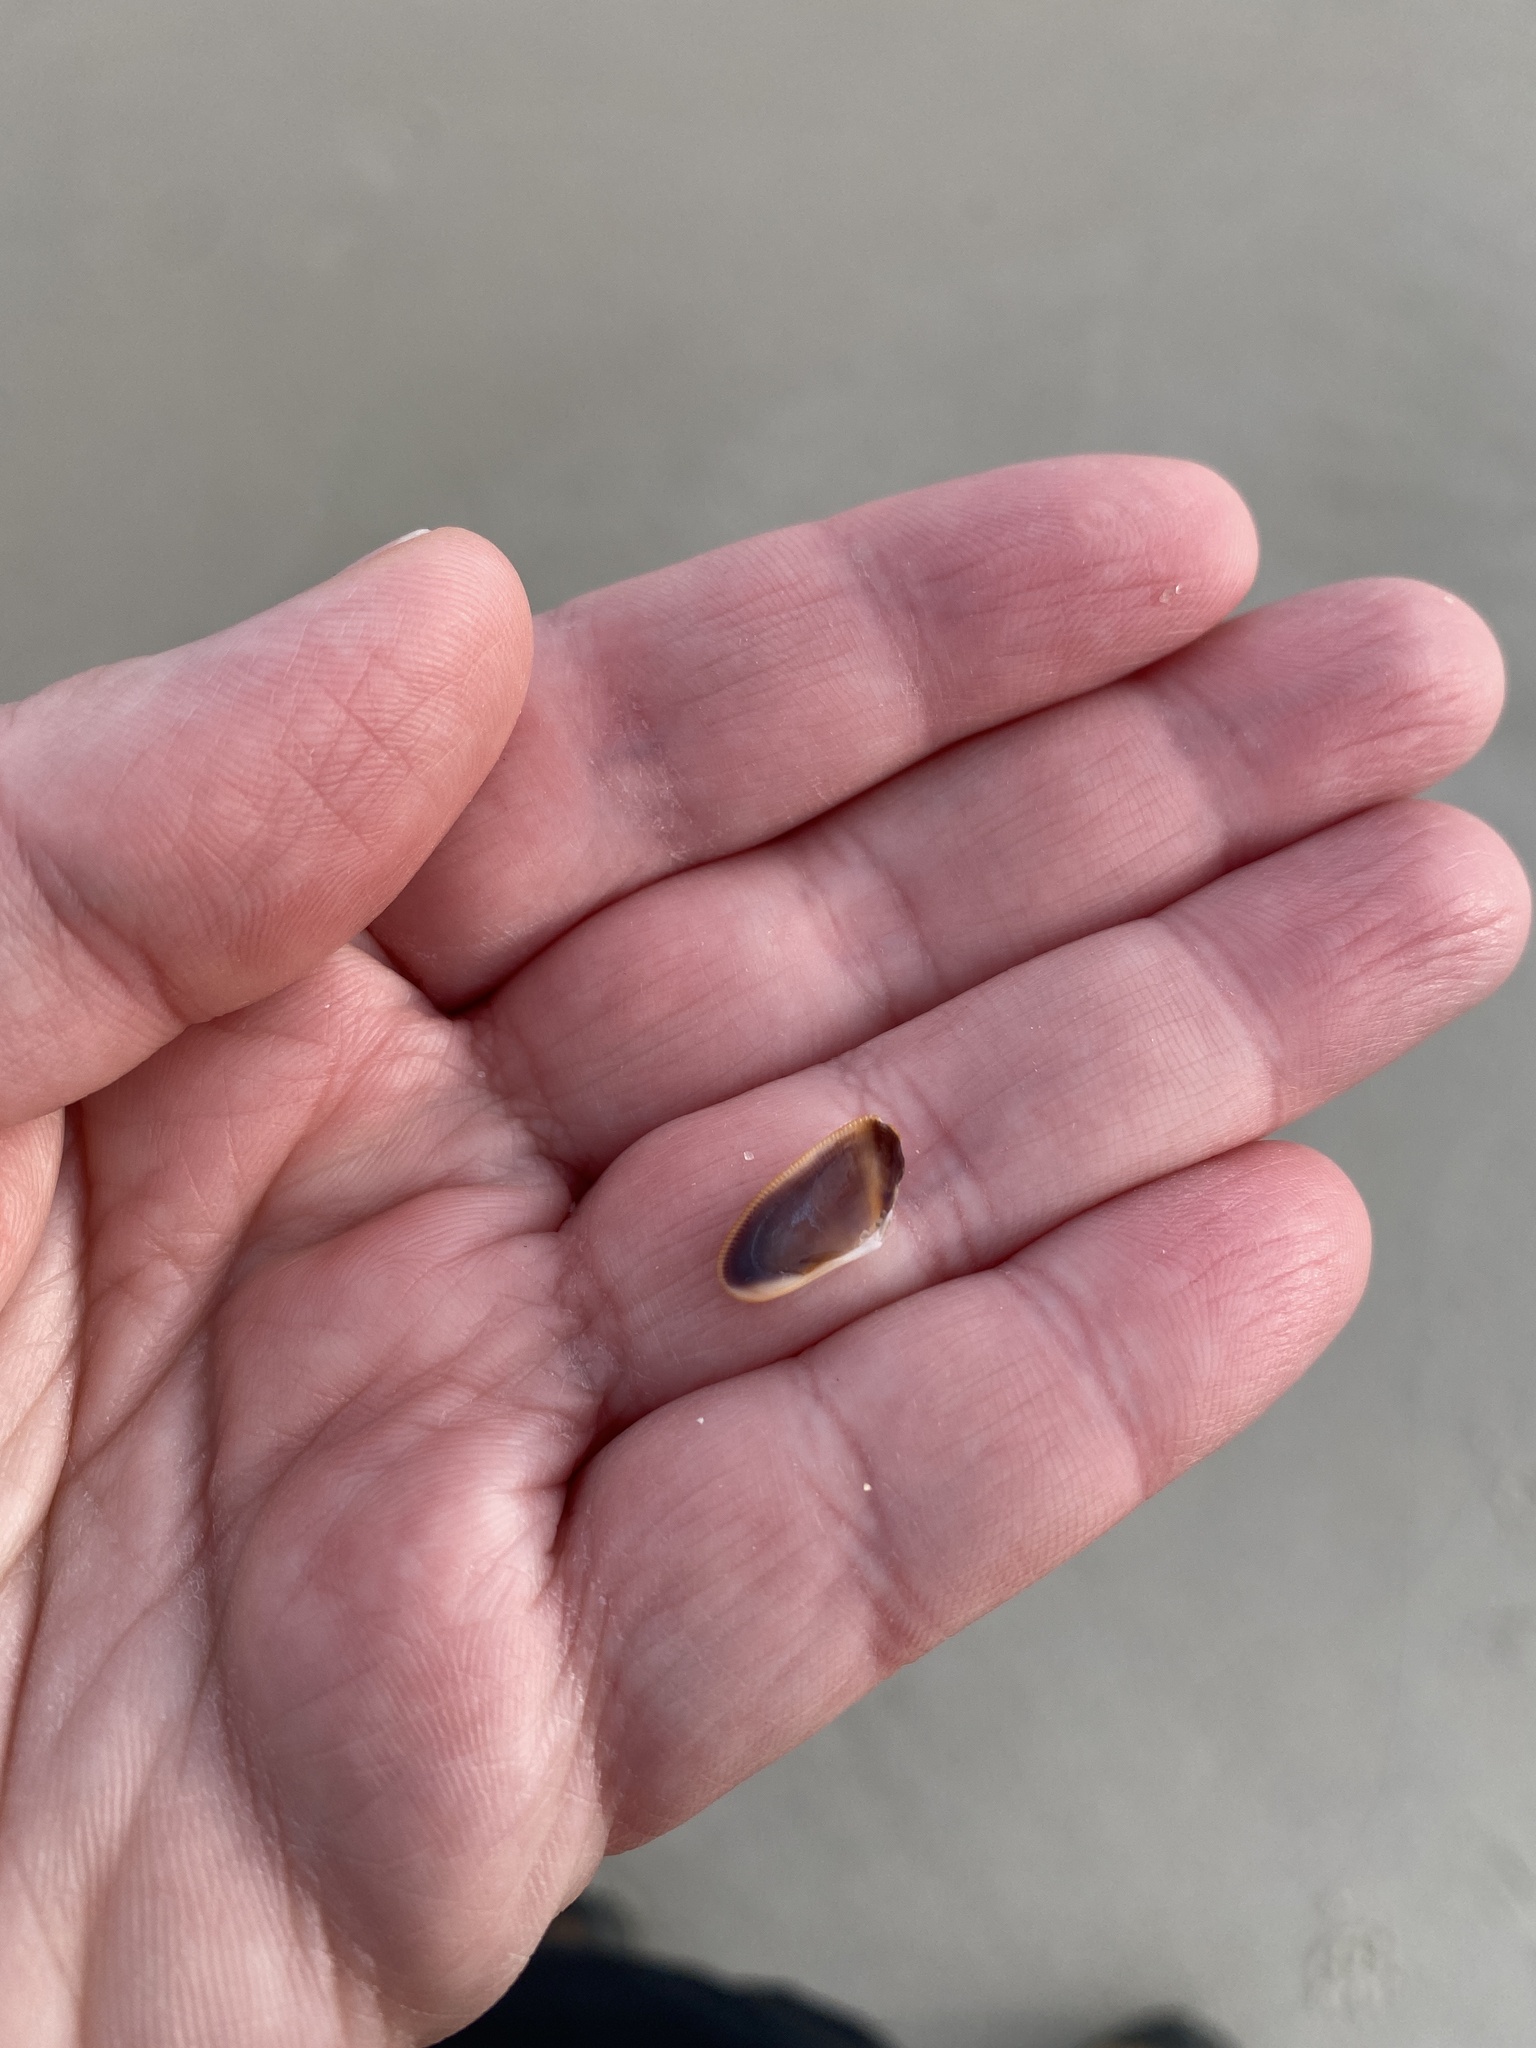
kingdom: Animalia
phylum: Mollusca
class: Bivalvia
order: Cardiida
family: Donacidae
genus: Donax
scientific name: Donax fossor
